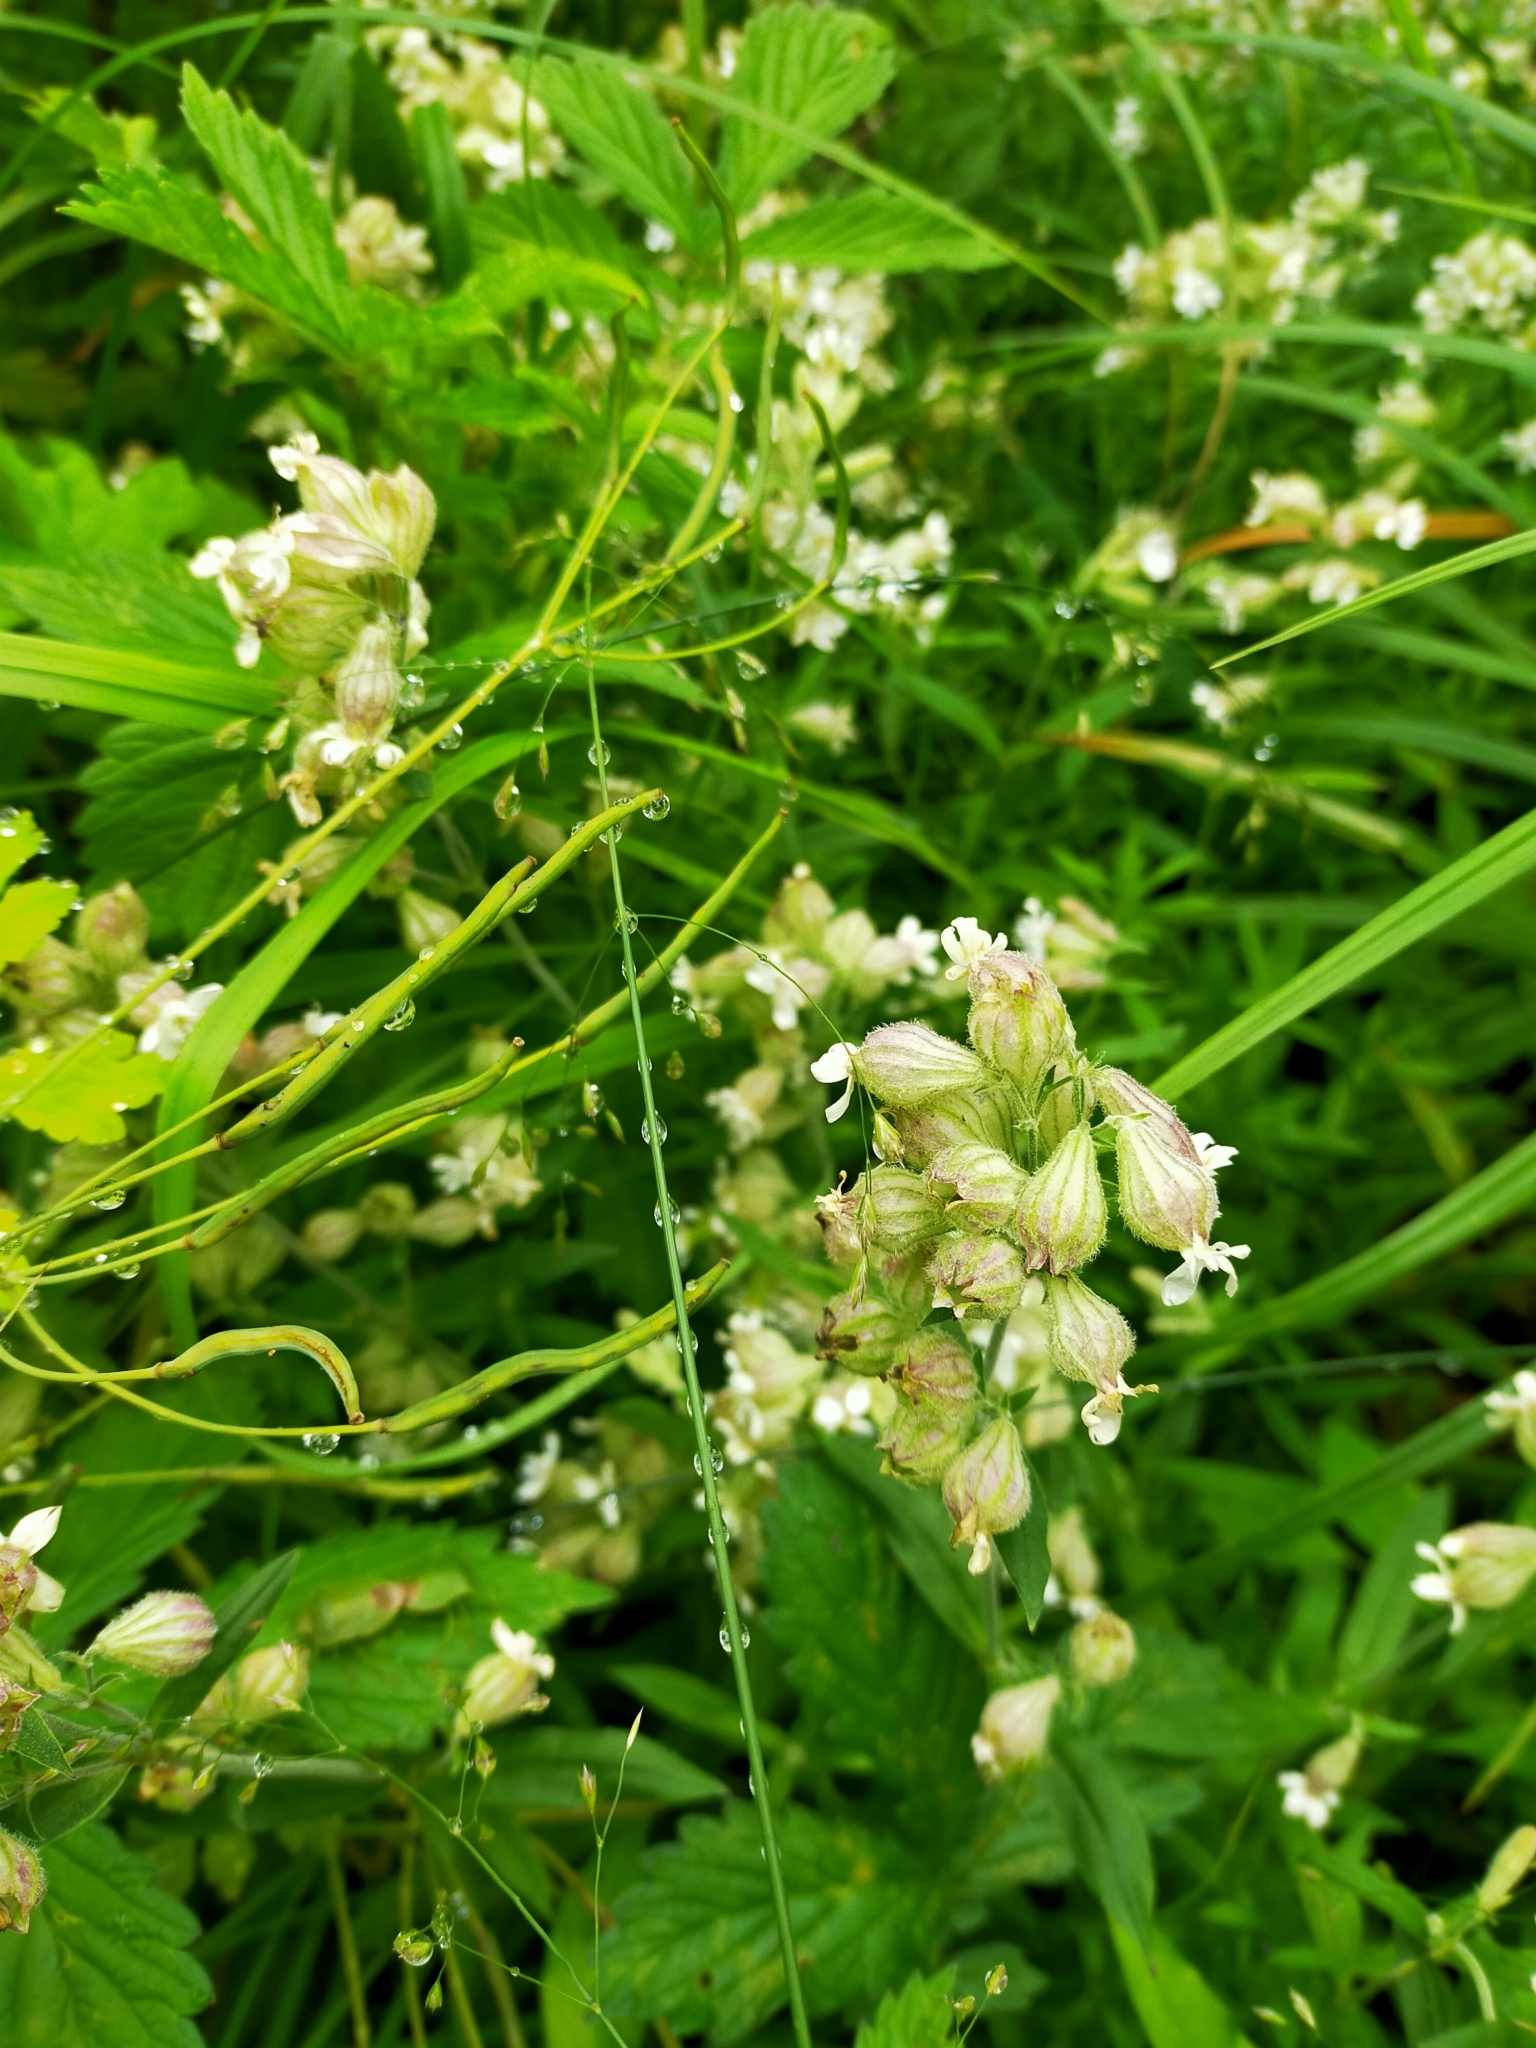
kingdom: Plantae
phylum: Tracheophyta
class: Magnoliopsida
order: Caryophyllales
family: Caryophyllaceae
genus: Silene
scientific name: Silene repens
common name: Pink campion
